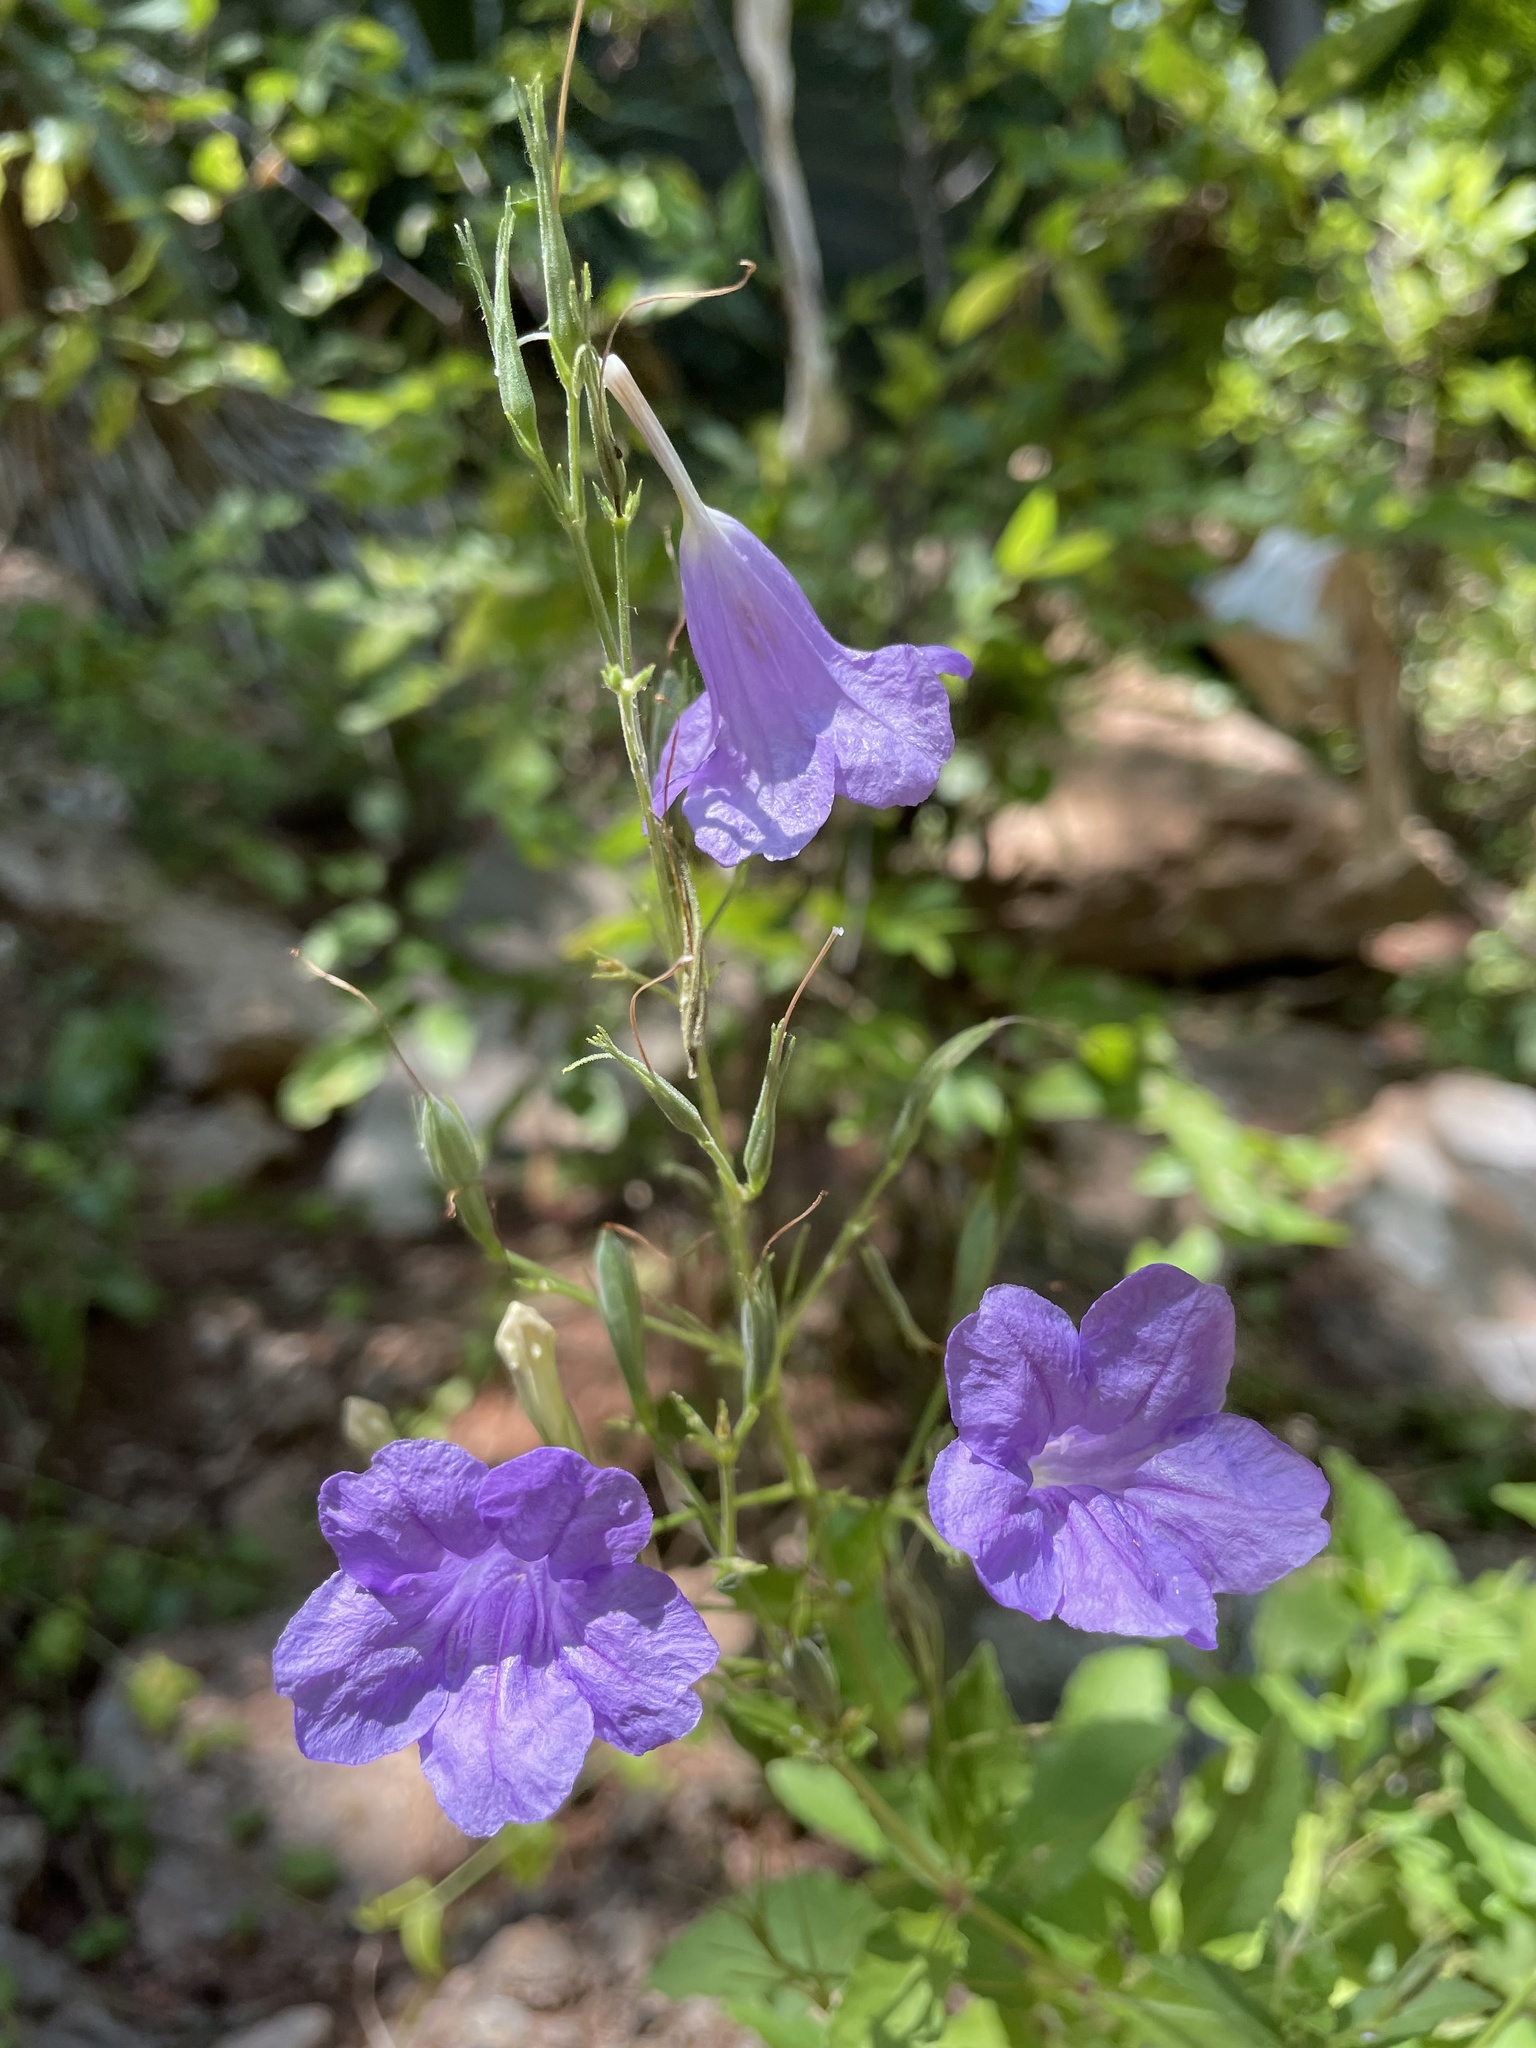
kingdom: Plantae
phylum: Tracheophyta
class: Magnoliopsida
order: Lamiales
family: Acanthaceae
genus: Ruellia
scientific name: Ruellia ciliatiflora
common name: Hairyflower wild petunia
